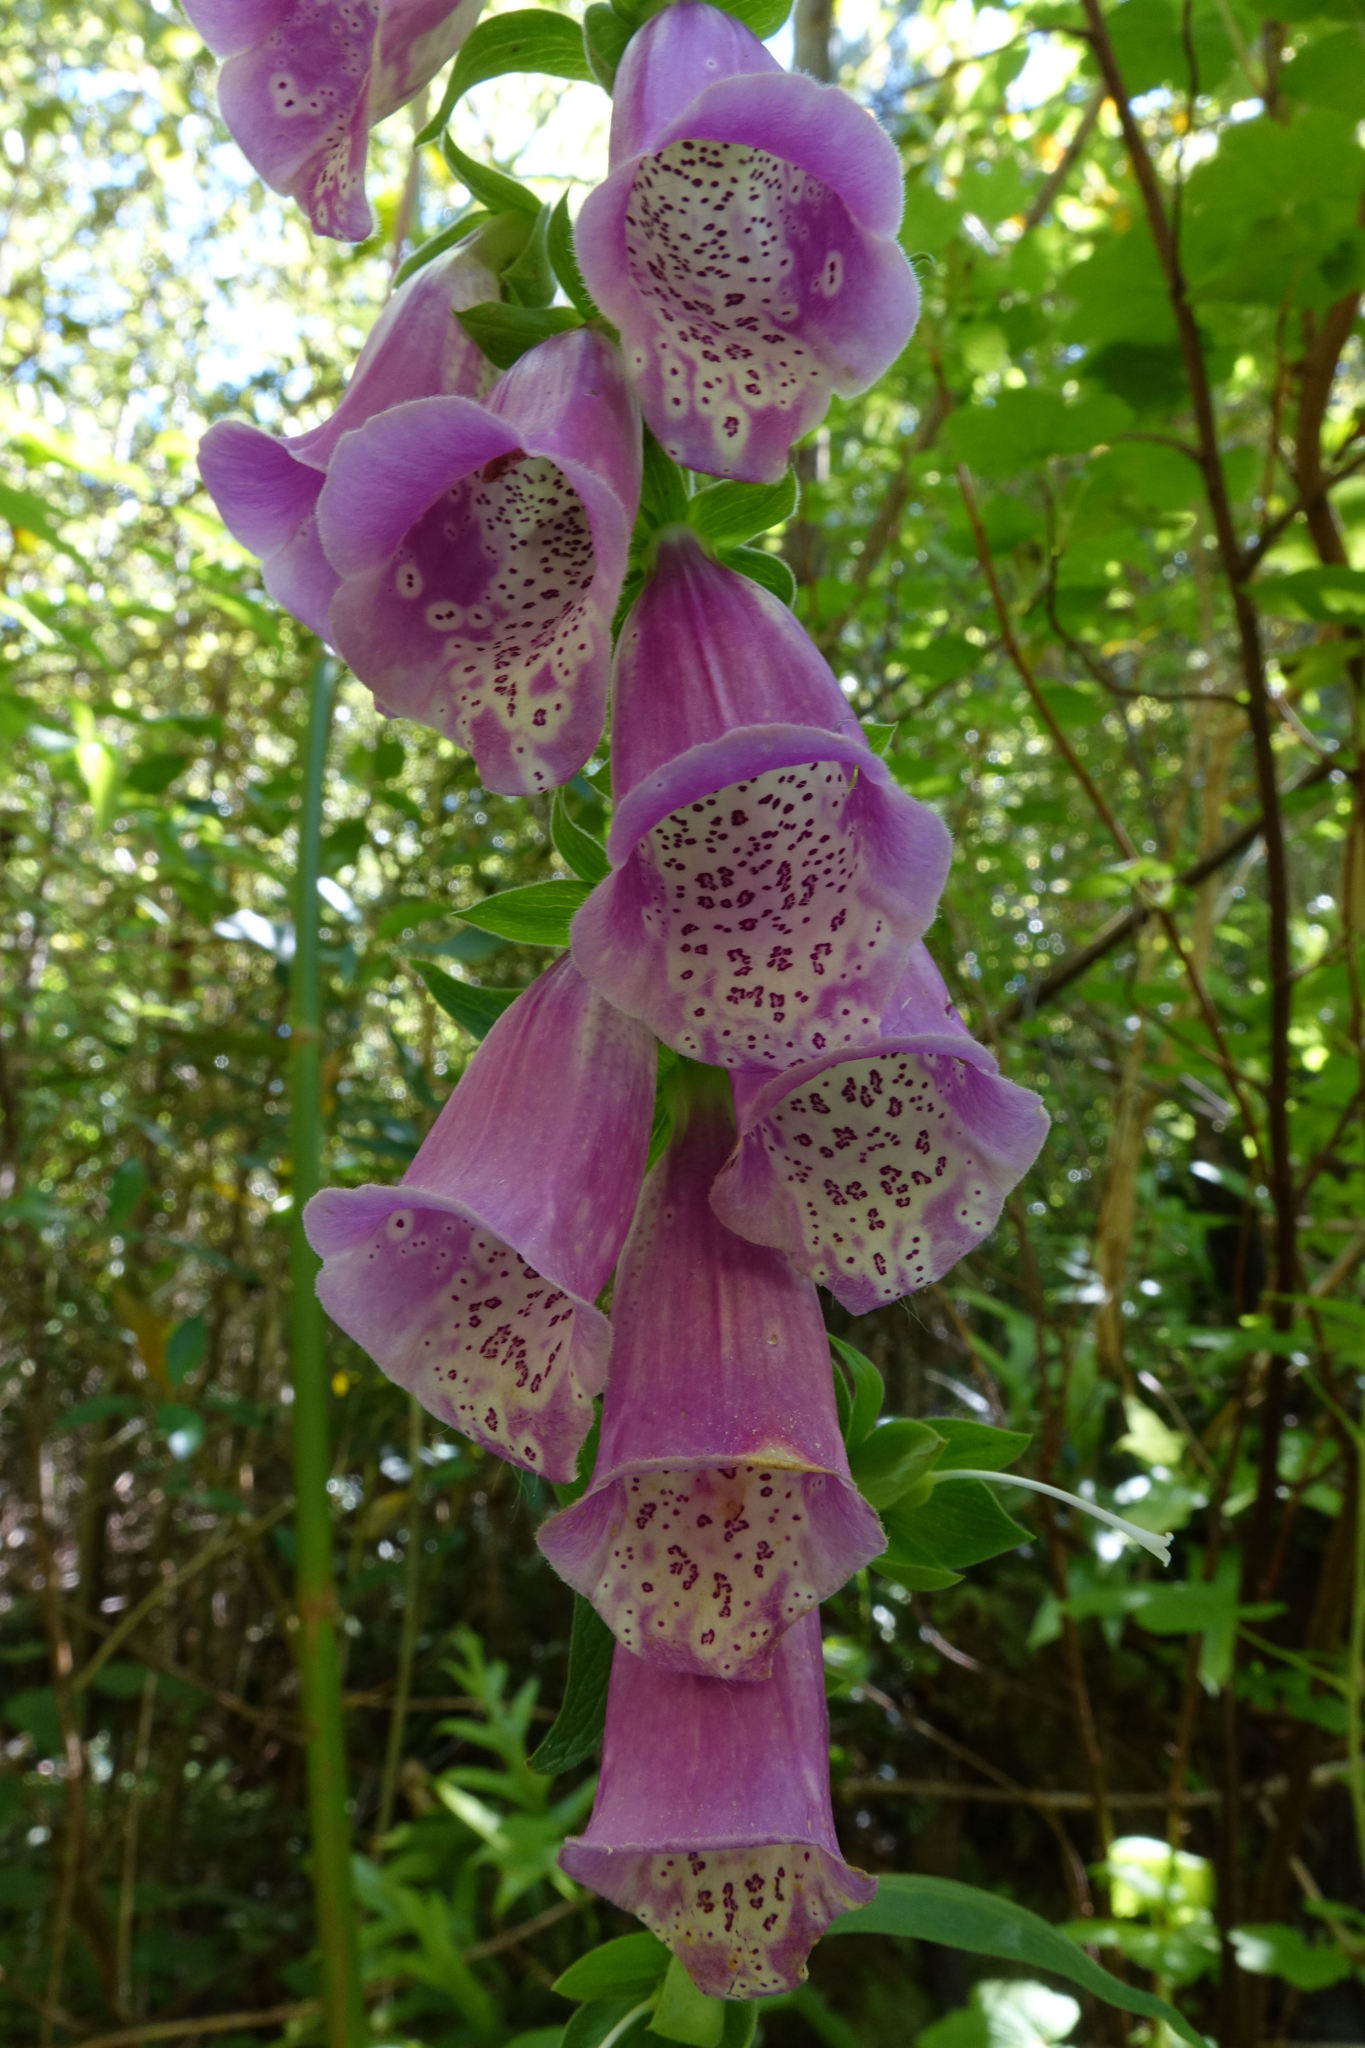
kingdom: Plantae
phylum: Tracheophyta
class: Magnoliopsida
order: Lamiales
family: Plantaginaceae
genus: Digitalis
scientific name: Digitalis purpurea
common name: Foxglove
